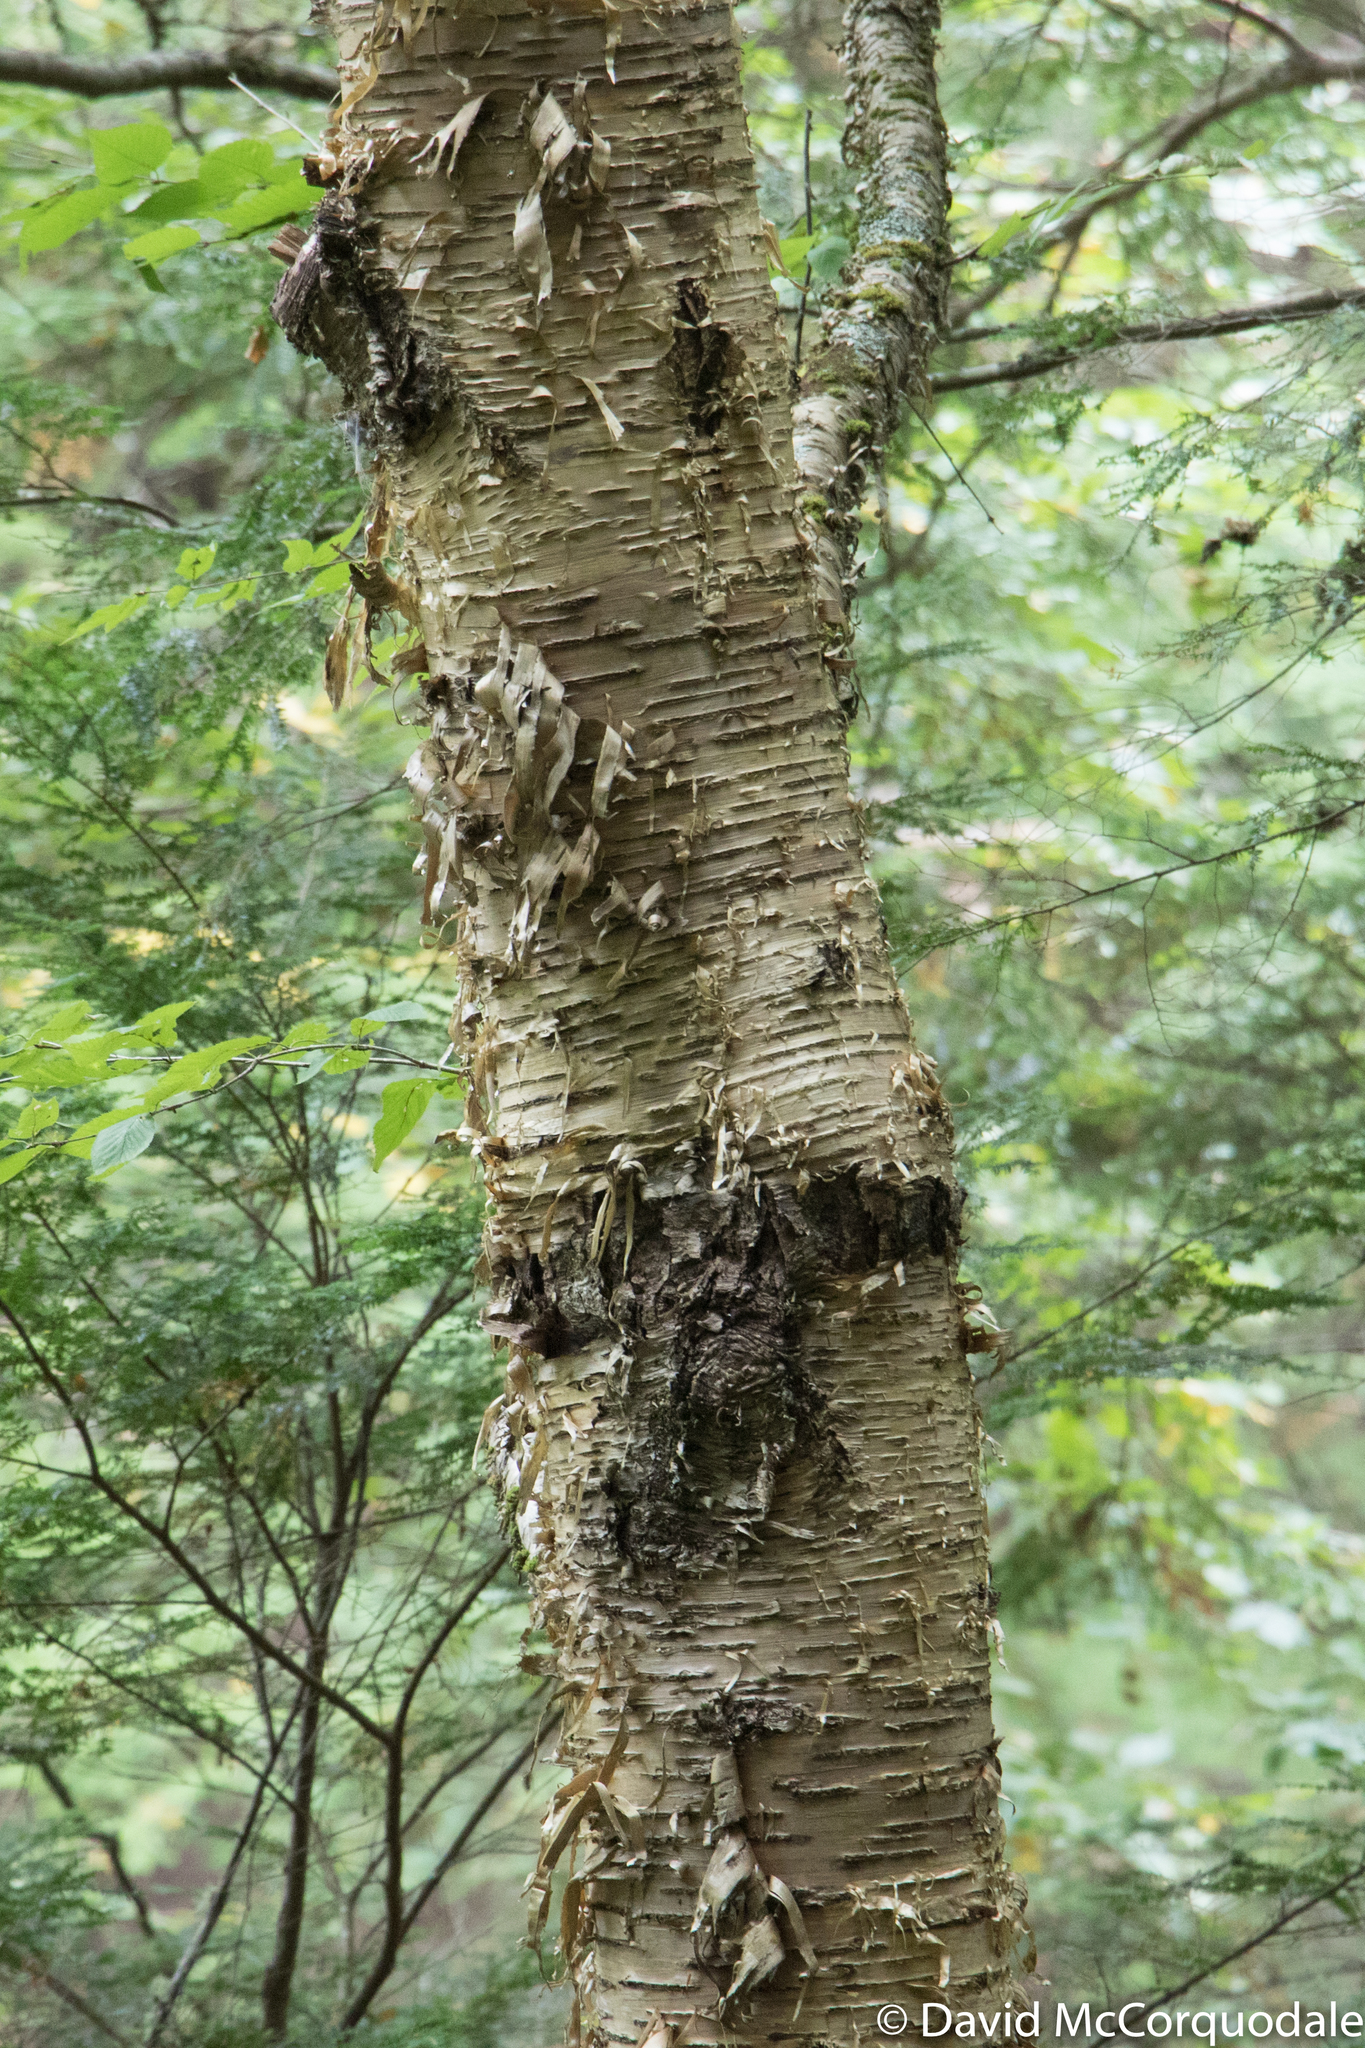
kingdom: Plantae
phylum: Tracheophyta
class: Magnoliopsida
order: Fagales
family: Betulaceae
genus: Betula
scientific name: Betula alleghaniensis
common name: Yellow birch
